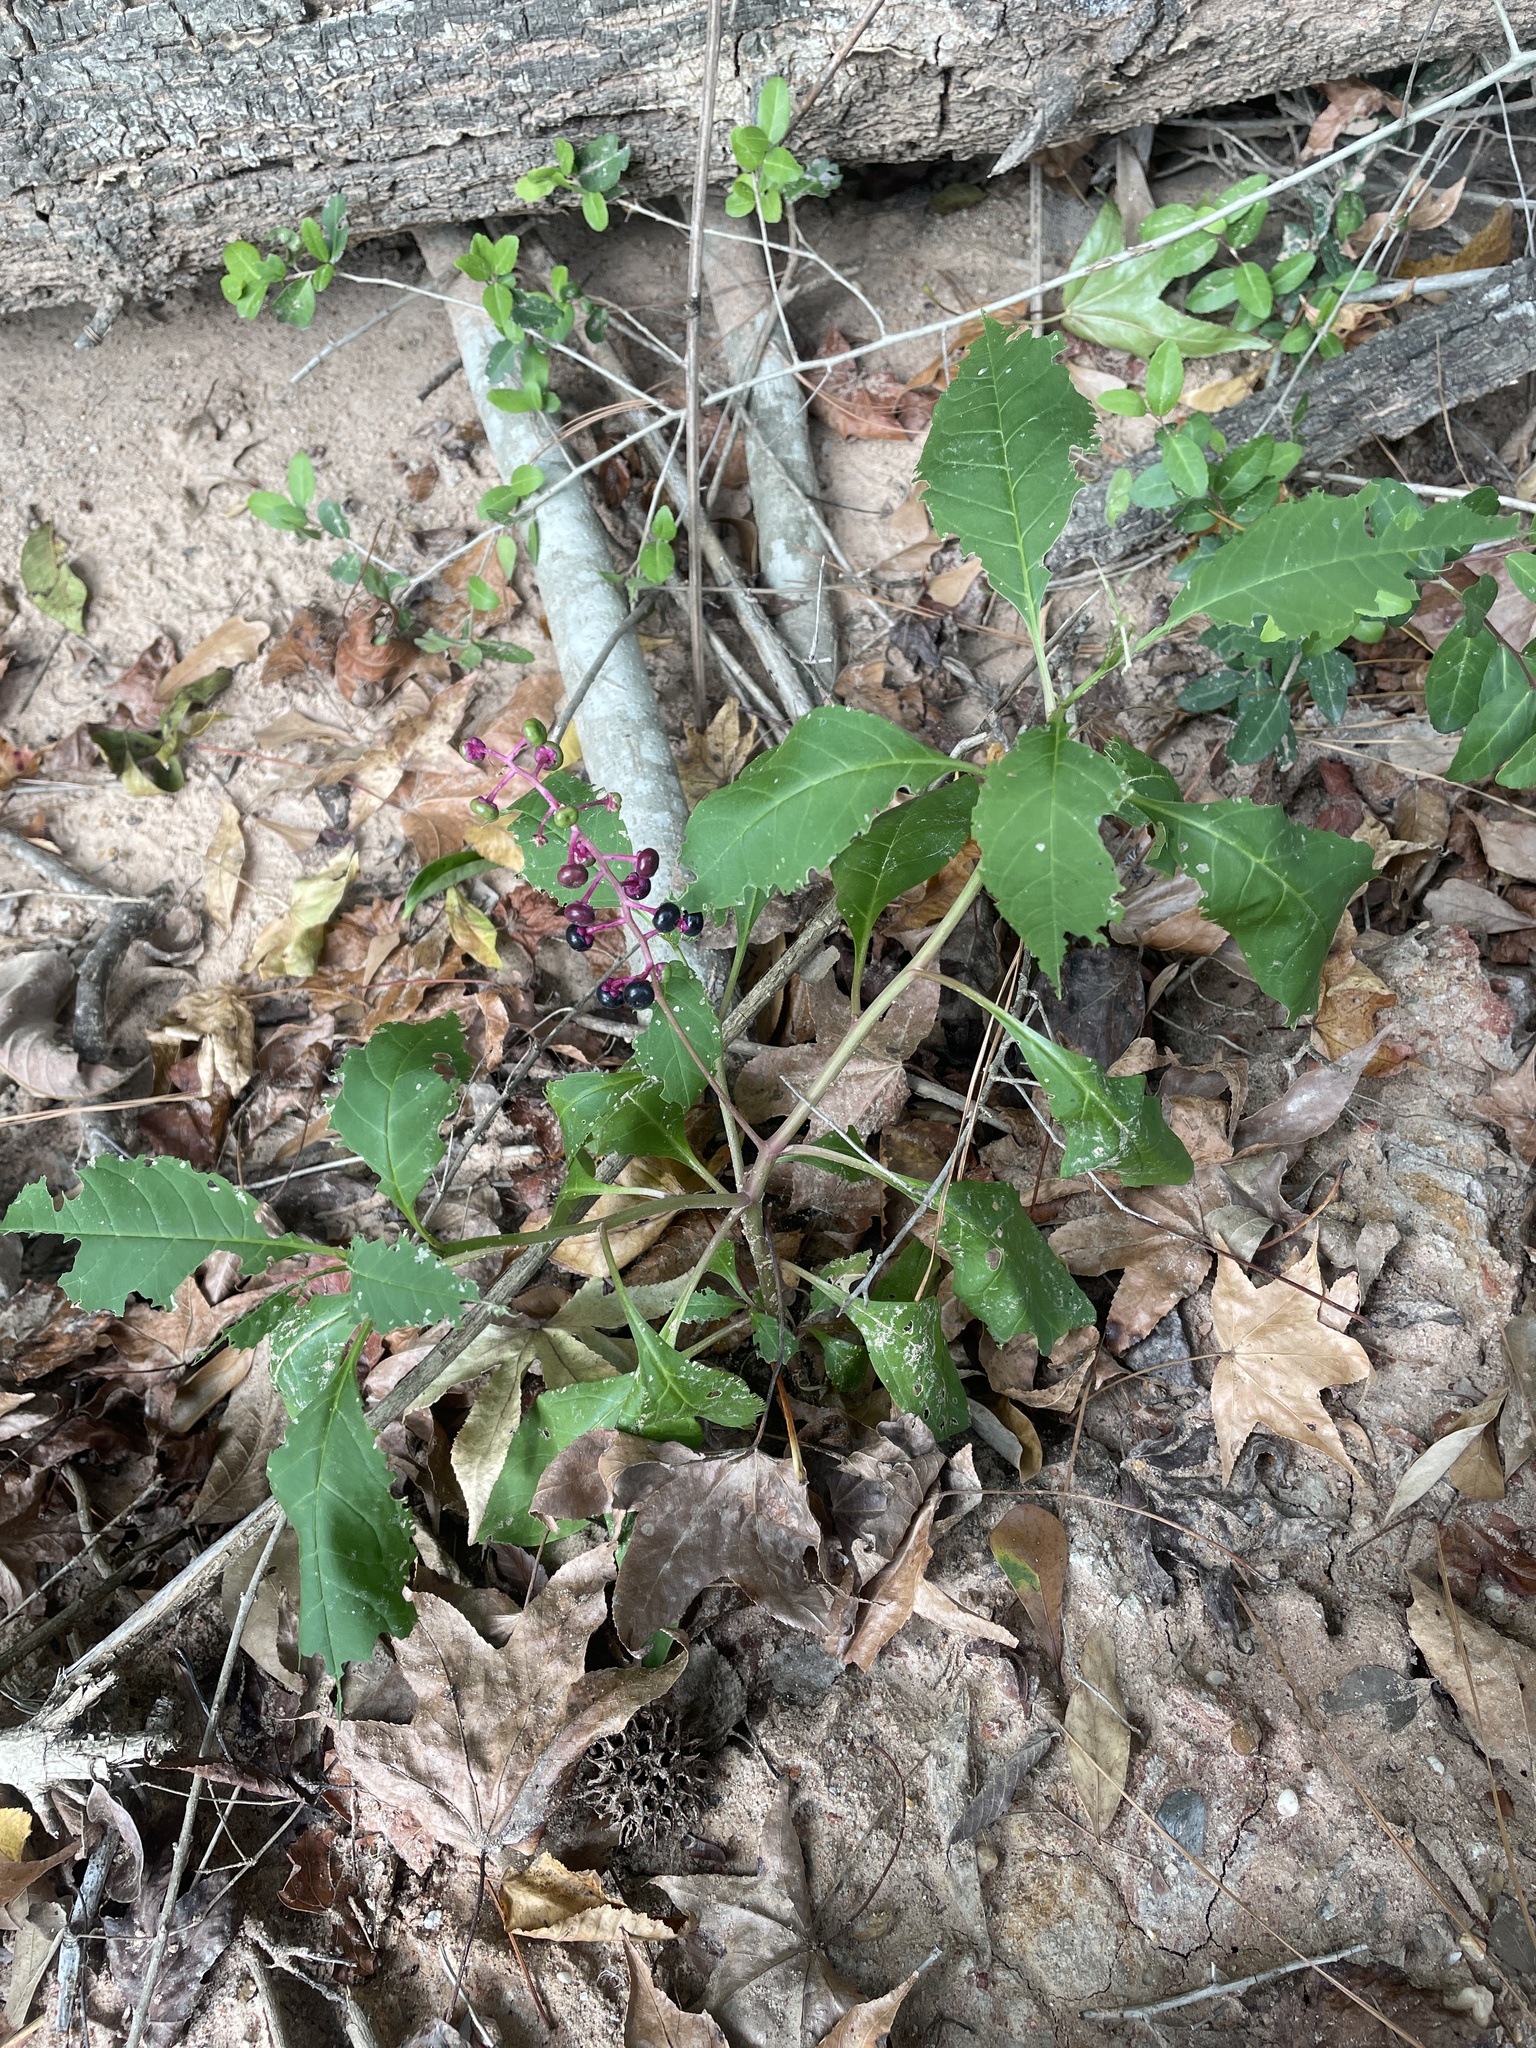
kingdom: Plantae
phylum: Tracheophyta
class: Magnoliopsida
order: Caryophyllales
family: Phytolaccaceae
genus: Phytolacca
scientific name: Phytolacca americana
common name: American pokeweed
